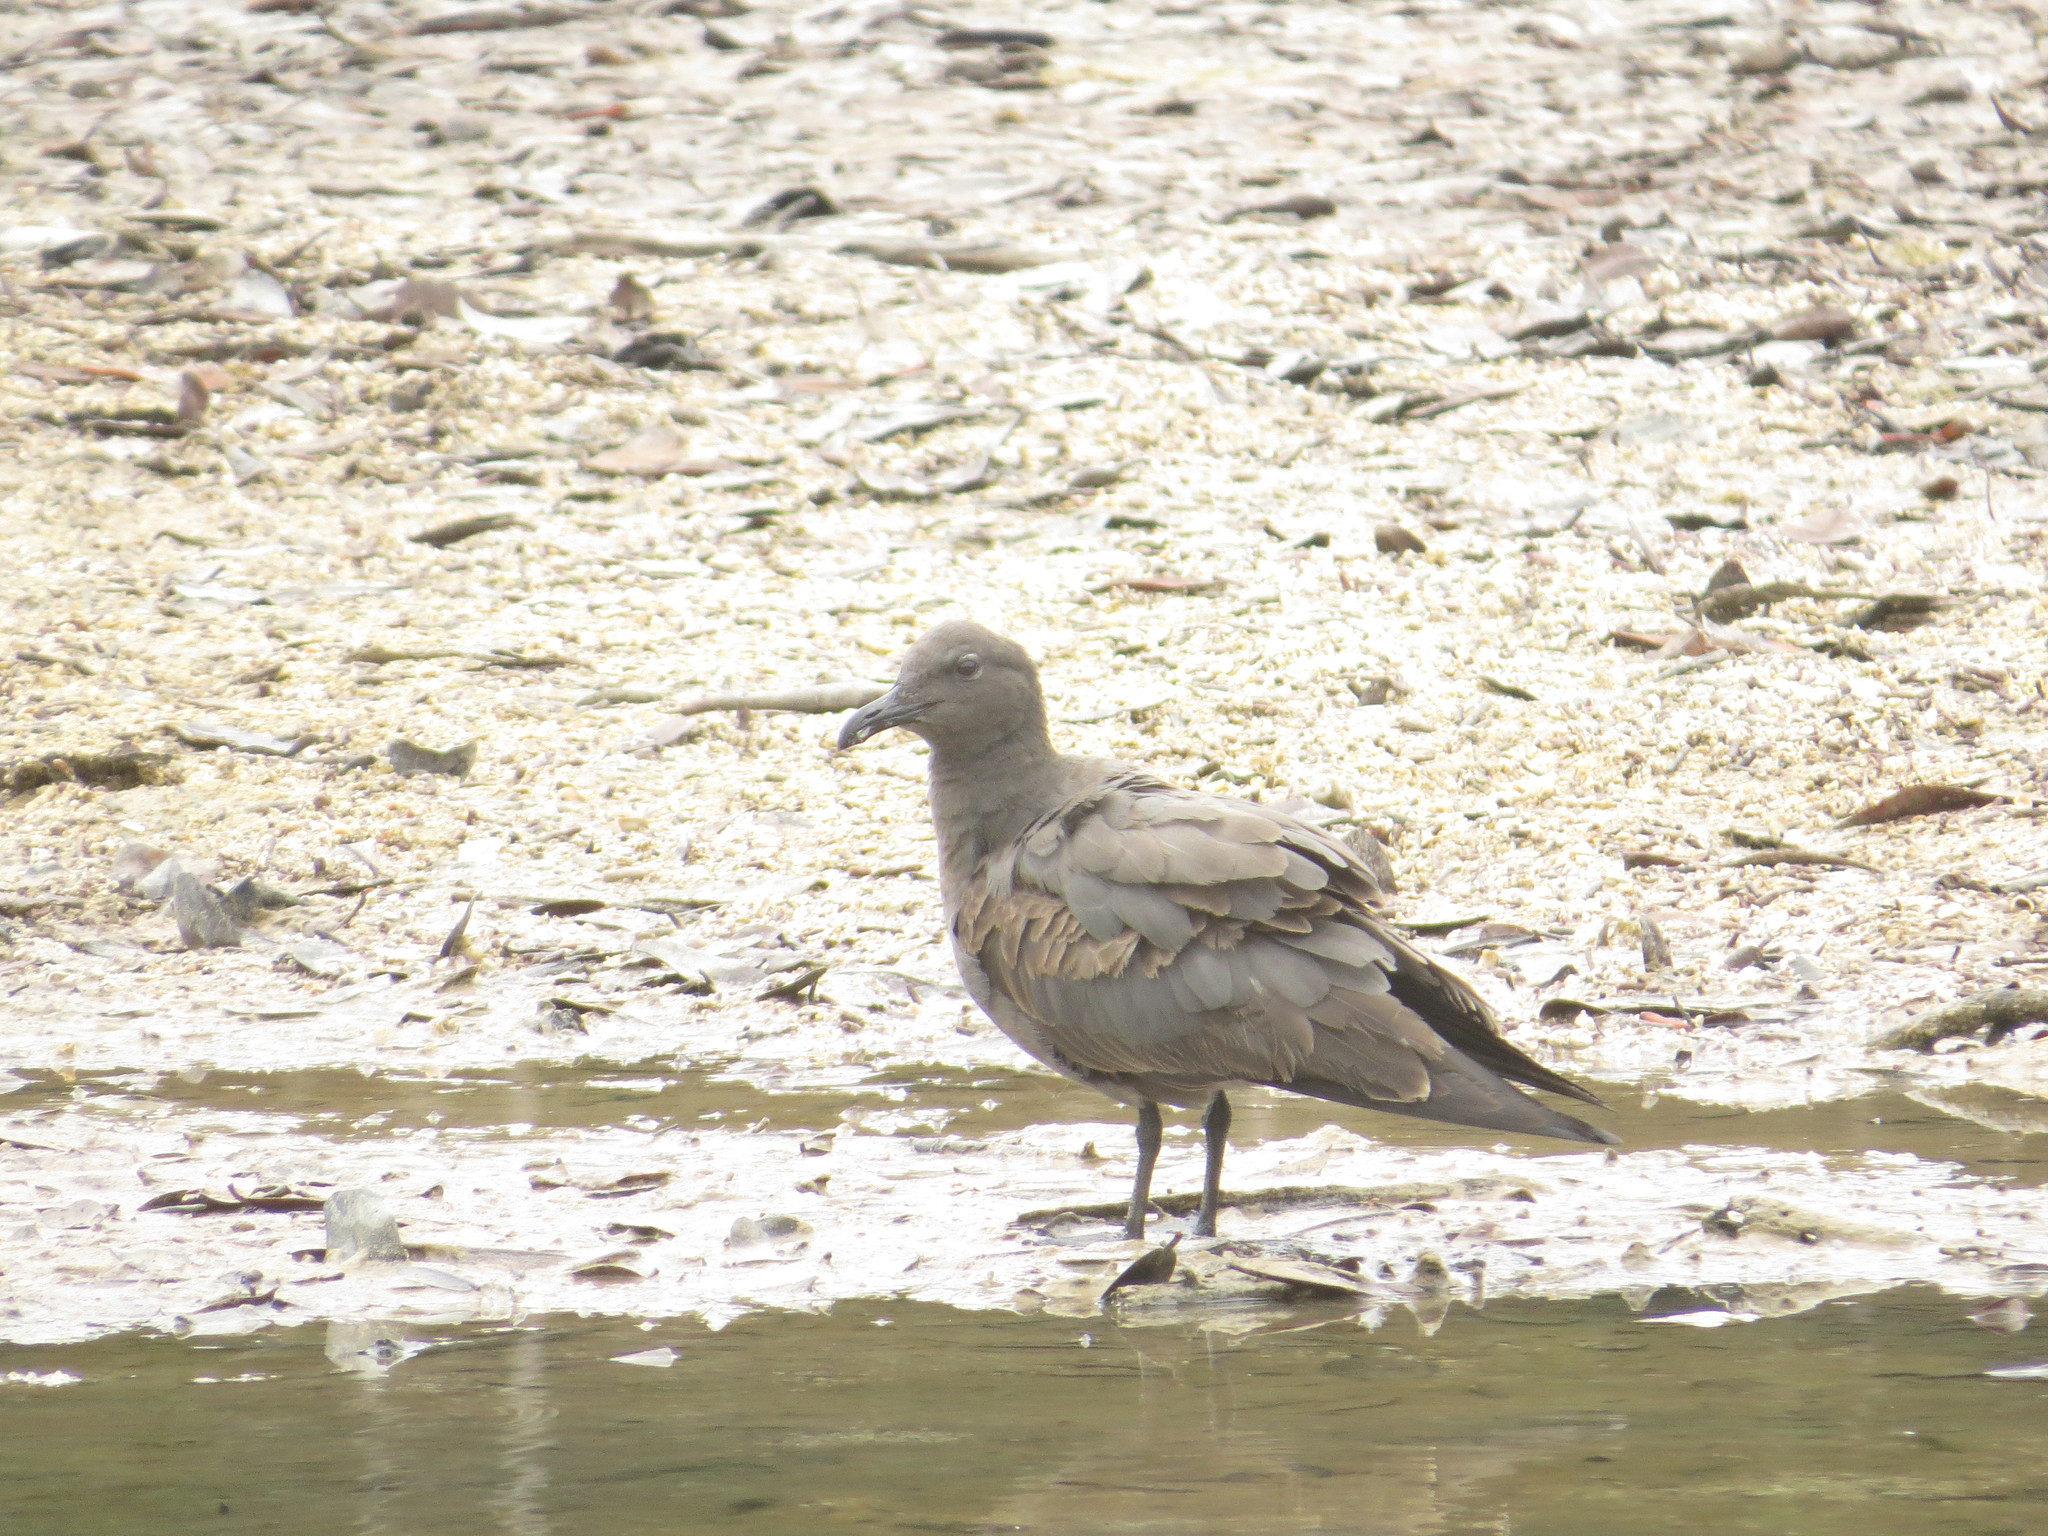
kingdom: Animalia
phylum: Chordata
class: Aves
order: Charadriiformes
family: Laridae
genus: Leucophaeus
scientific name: Leucophaeus fuliginosus
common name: Lava gull
